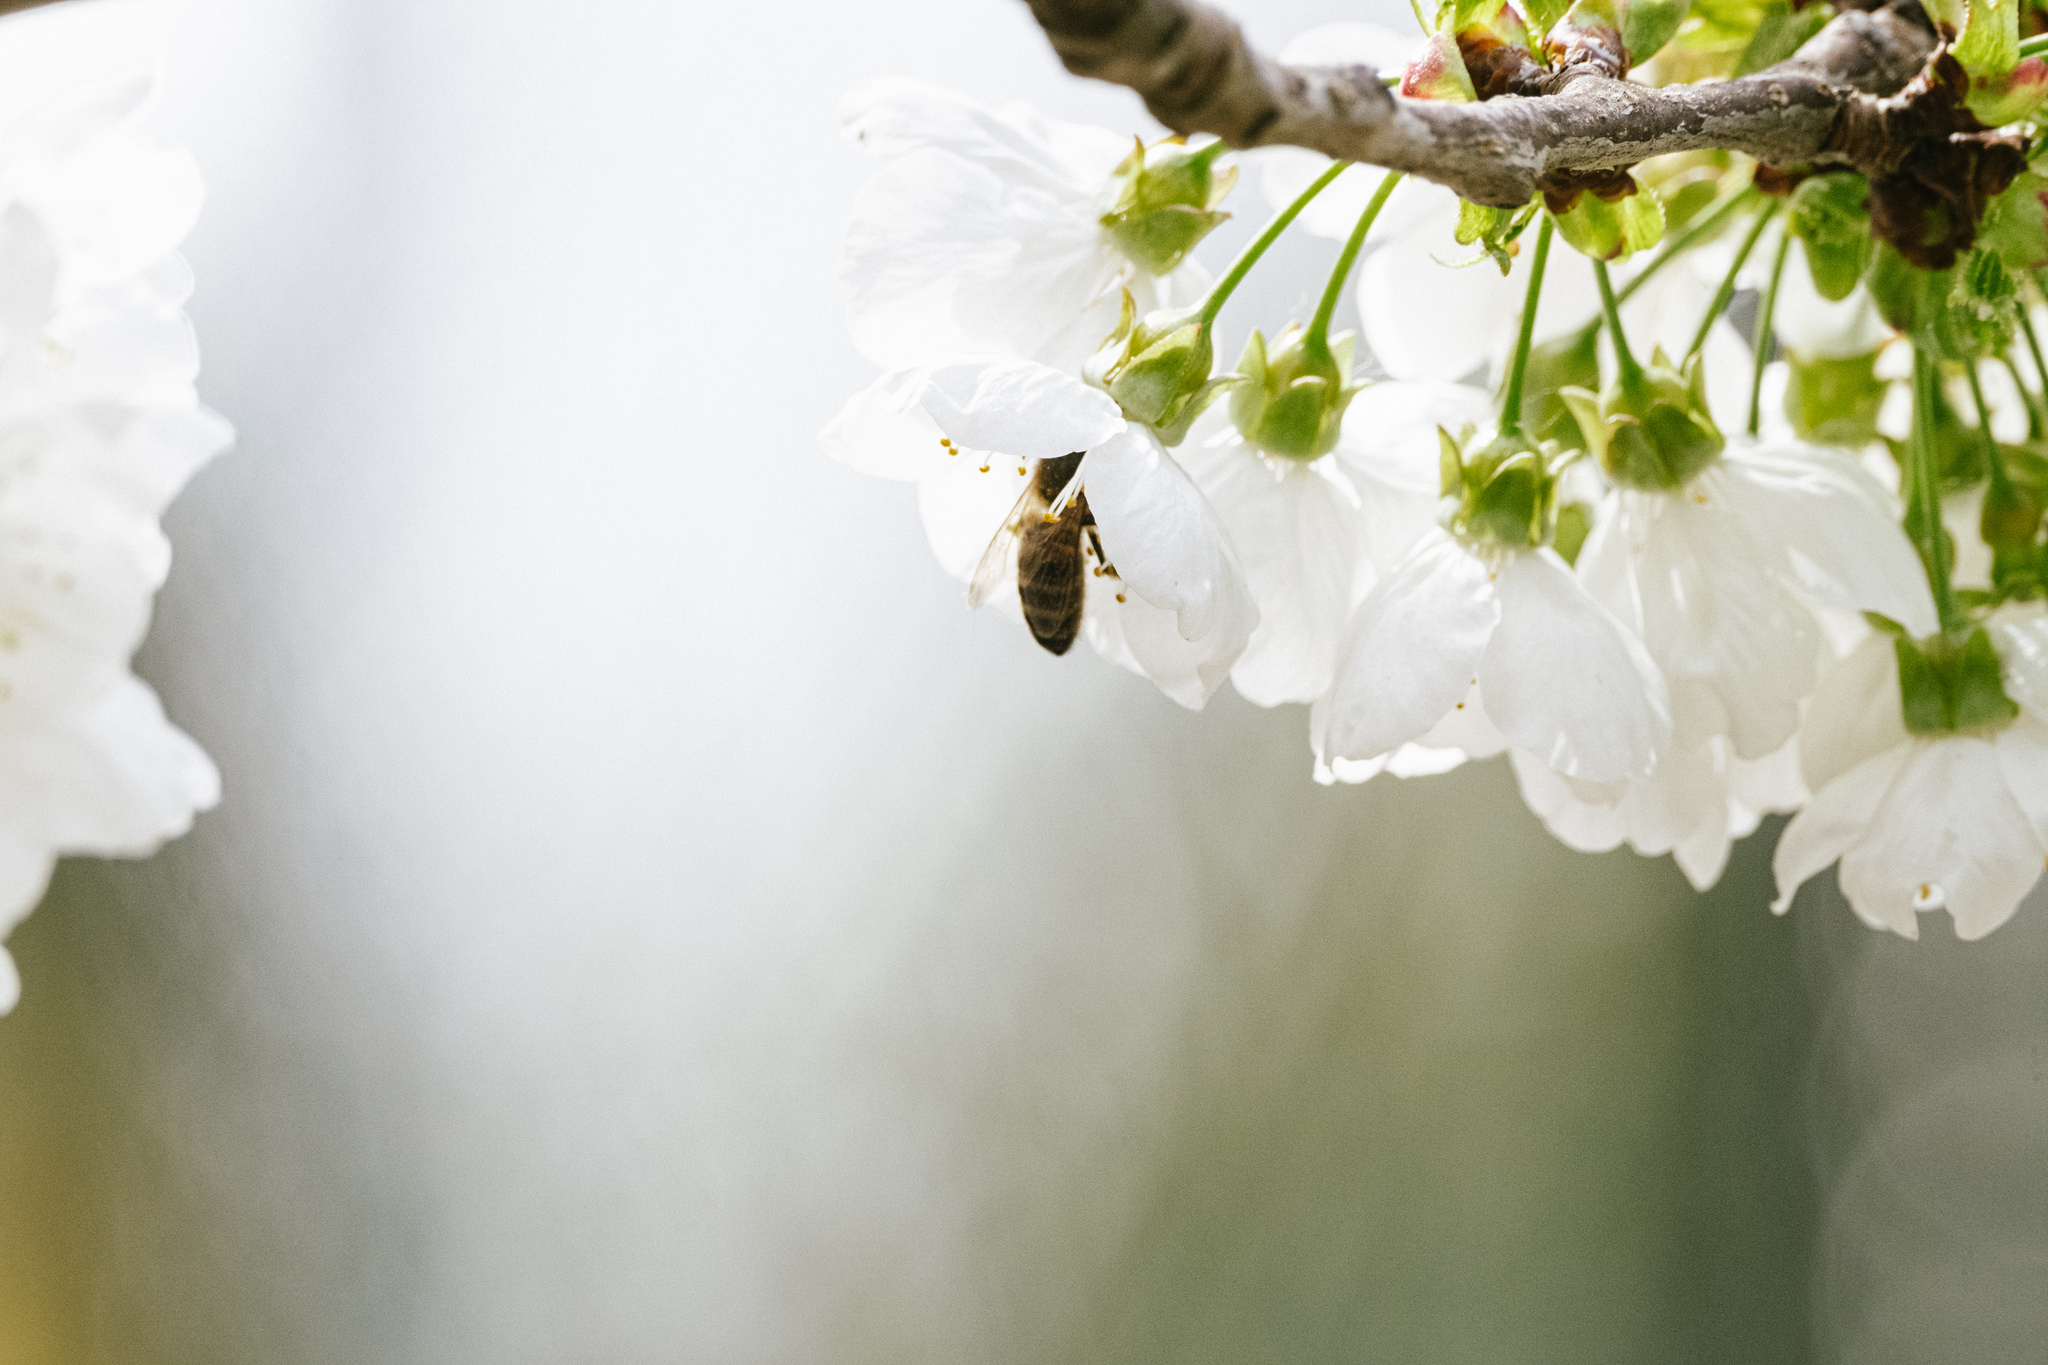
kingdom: Animalia
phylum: Arthropoda
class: Insecta
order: Hymenoptera
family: Apidae
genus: Apis
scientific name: Apis mellifera
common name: Honey bee
